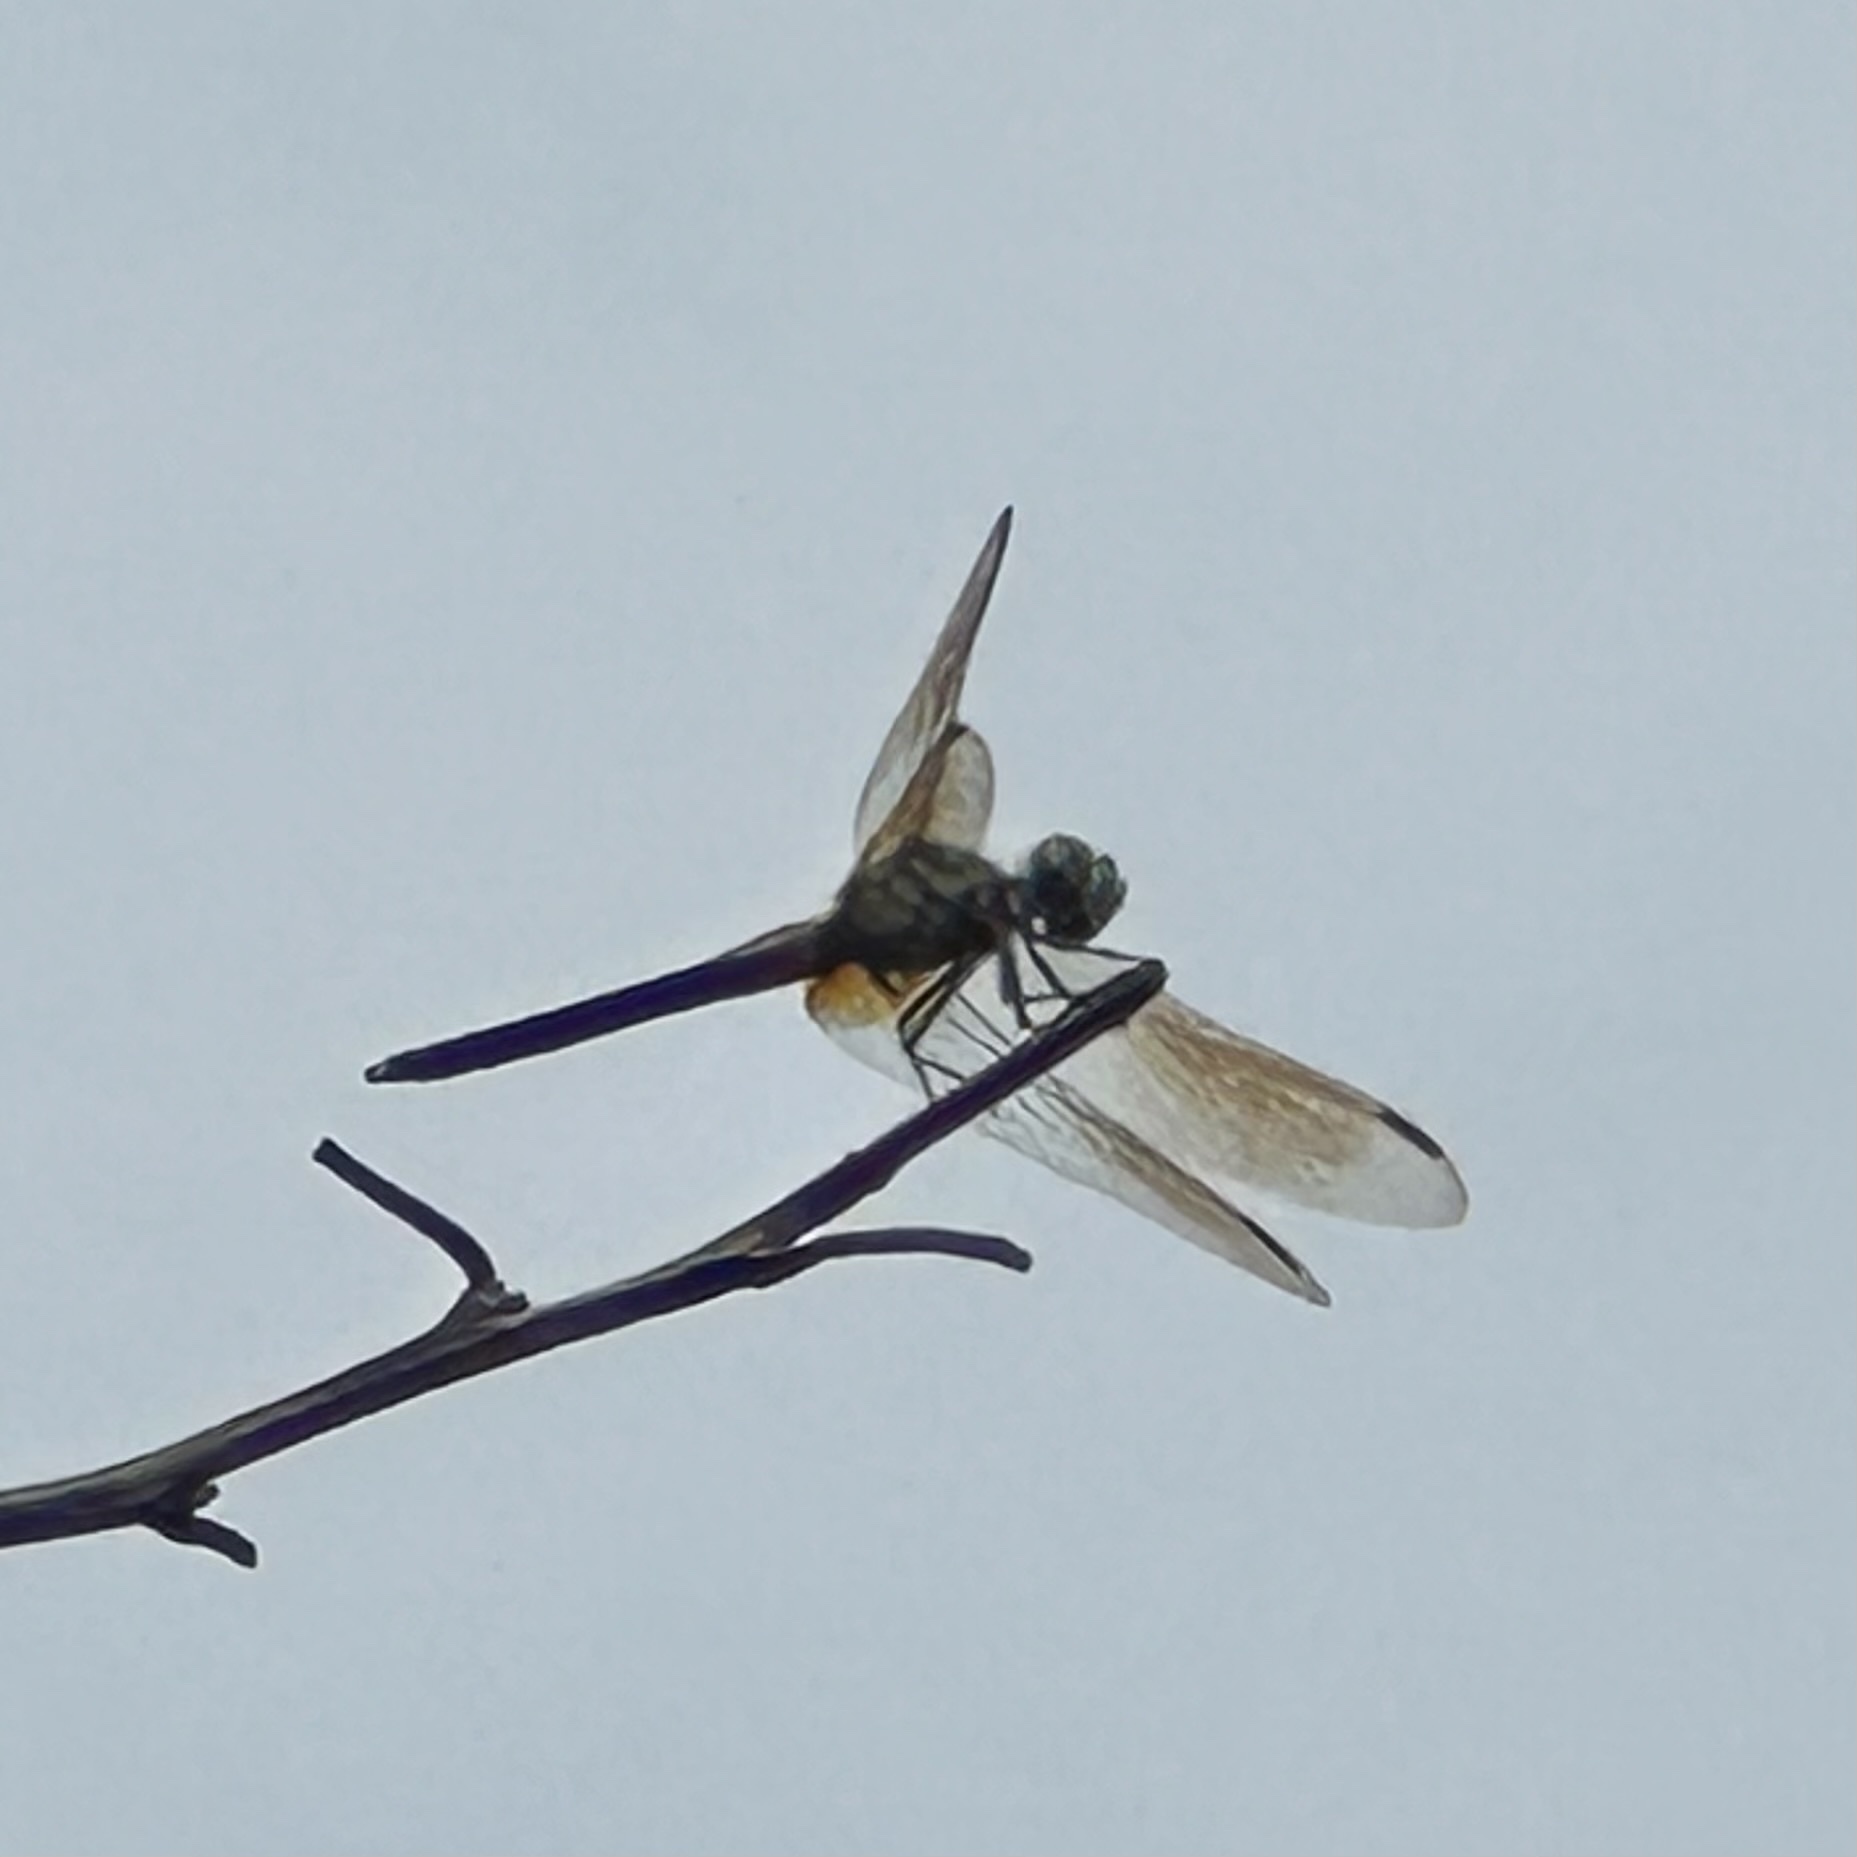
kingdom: Animalia
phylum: Arthropoda
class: Insecta
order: Odonata
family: Libellulidae
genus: Pachydiplax
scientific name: Pachydiplax longipennis
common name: Blue dasher
